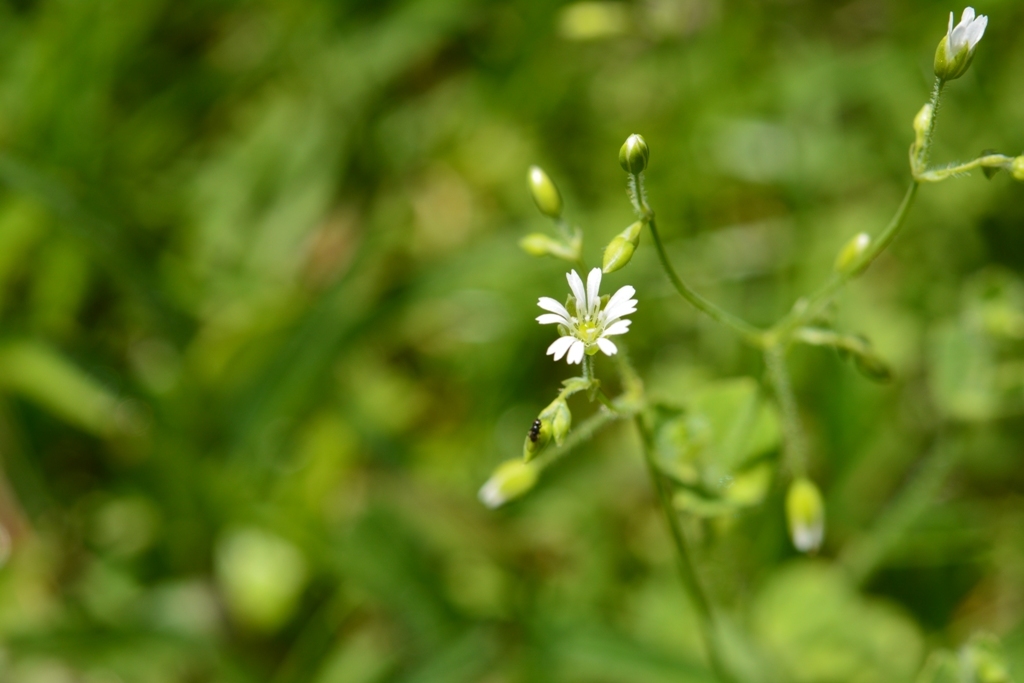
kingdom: Plantae
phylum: Tracheophyta
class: Magnoliopsida
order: Caryophyllales
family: Caryophyllaceae
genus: Drymaria
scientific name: Drymaria villosa
